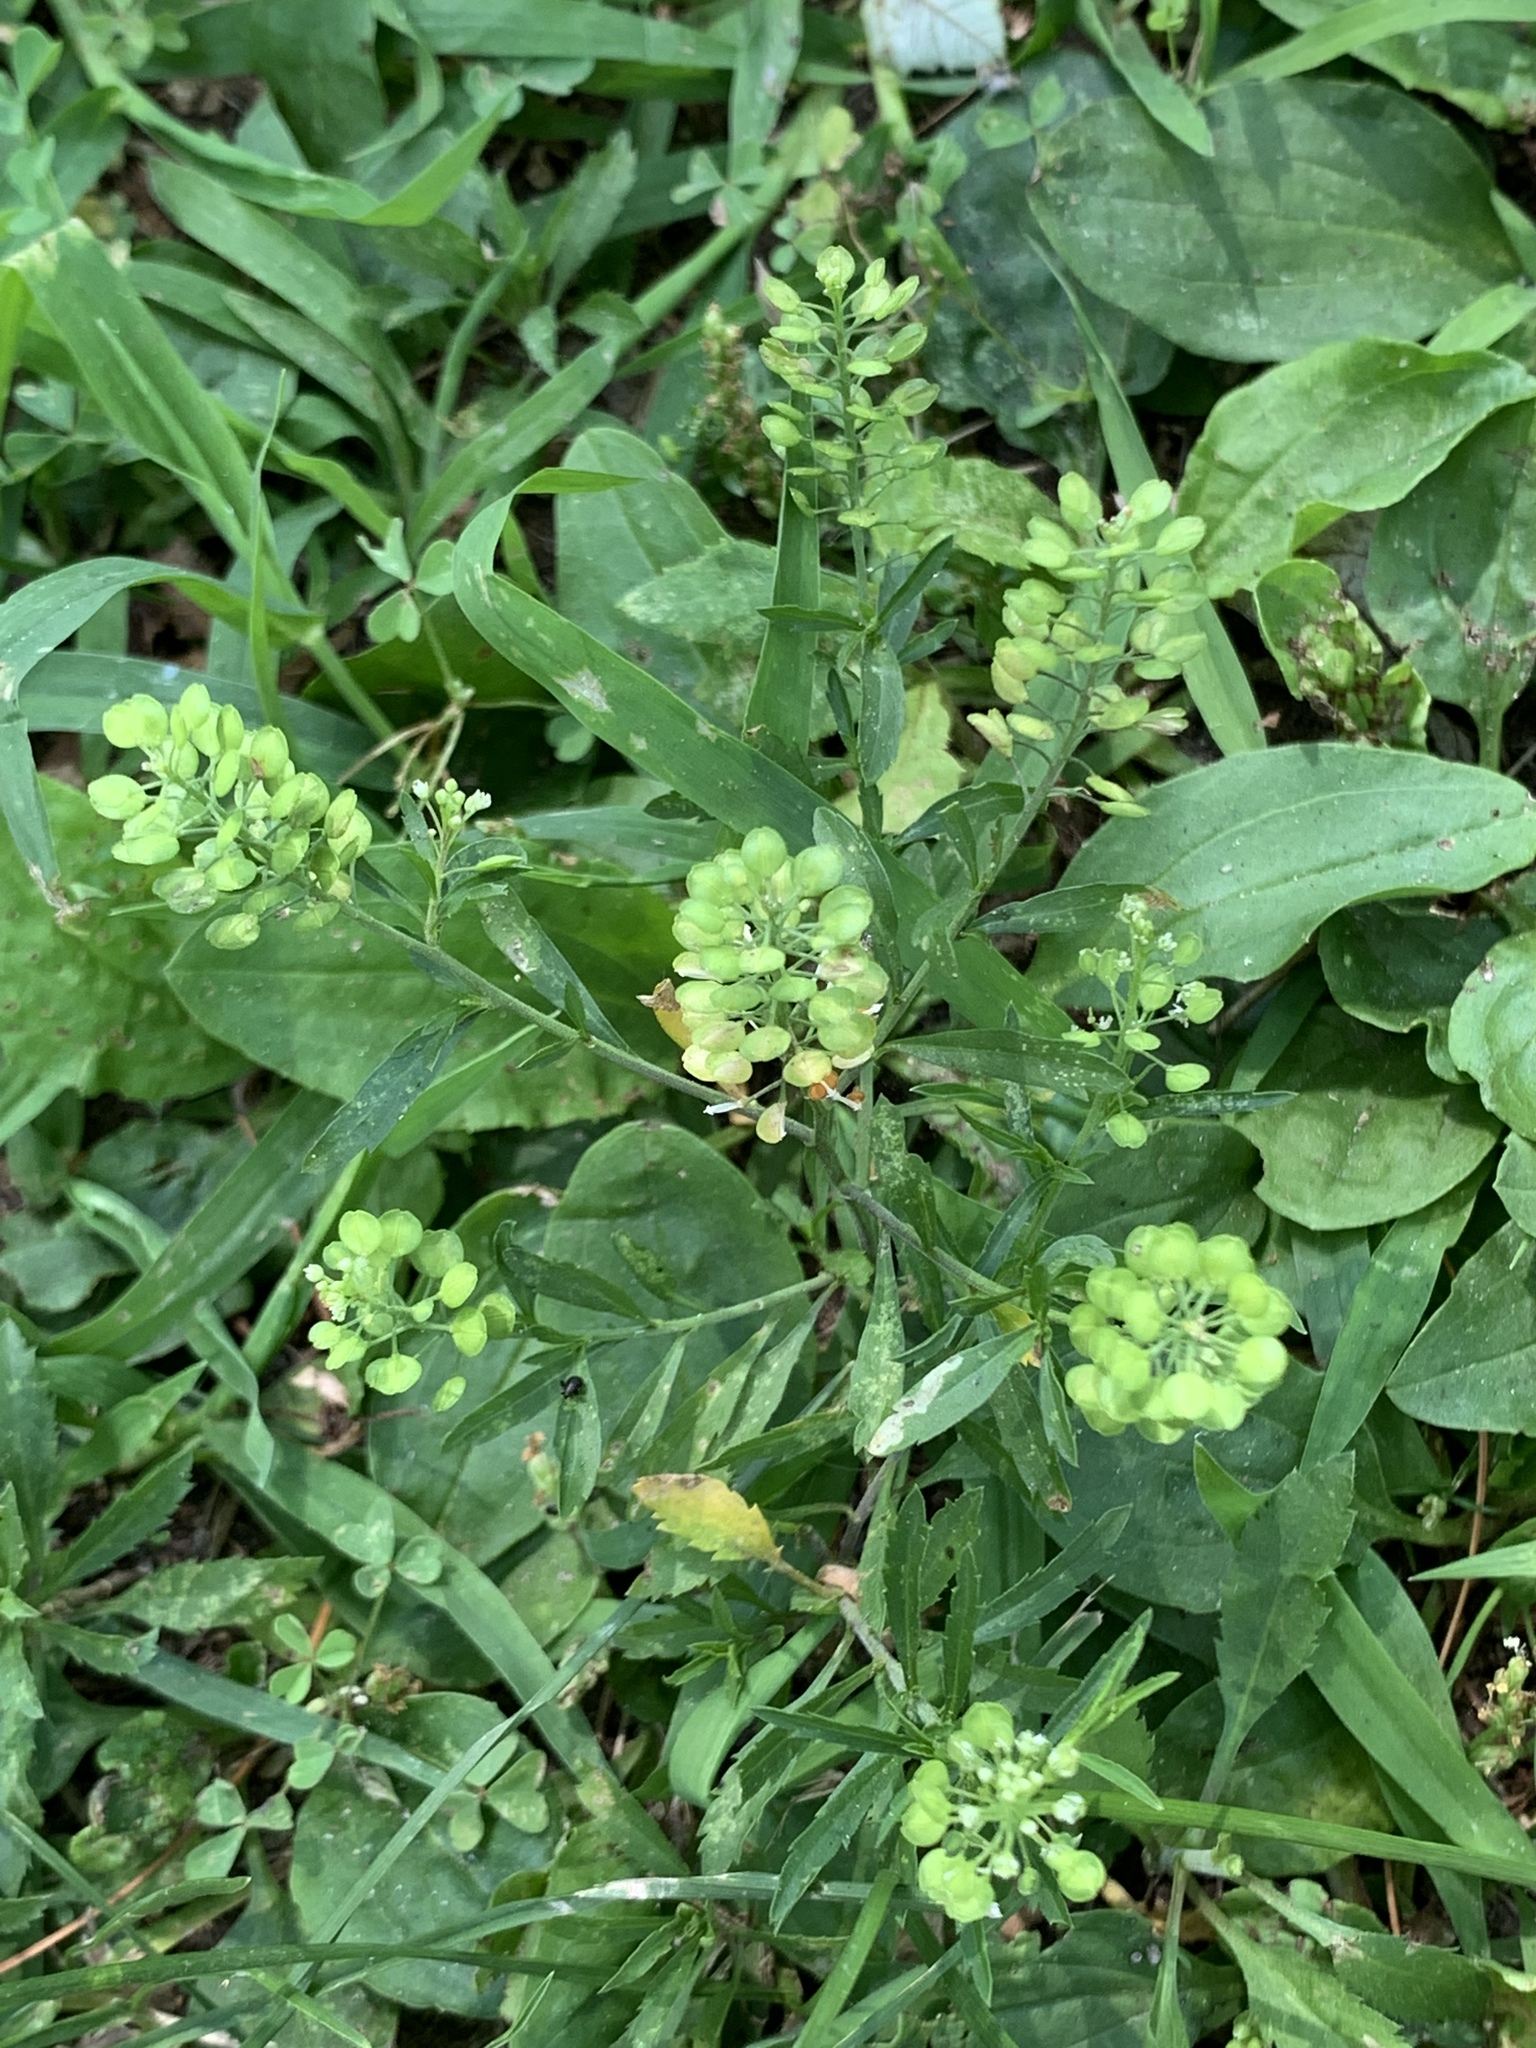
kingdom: Plantae
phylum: Tracheophyta
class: Magnoliopsida
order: Brassicales
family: Brassicaceae
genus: Lepidium
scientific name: Lepidium virginicum
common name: Least pepperwort
